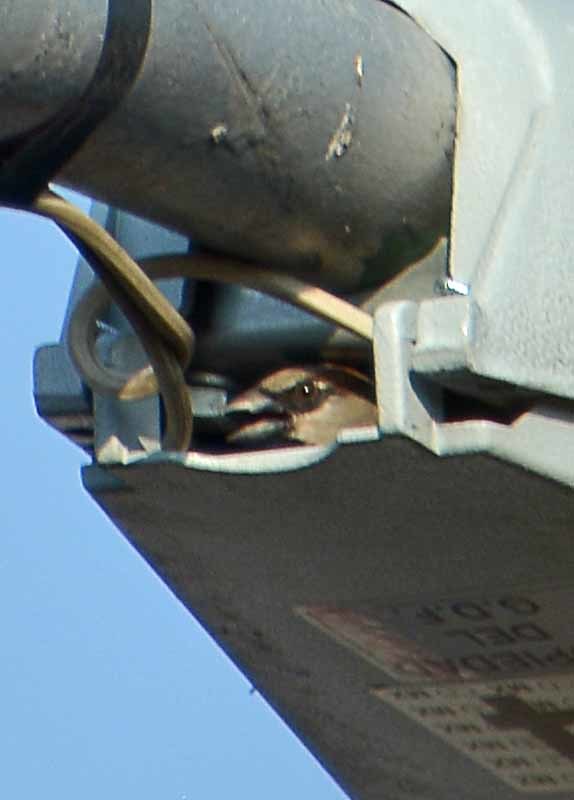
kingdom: Animalia
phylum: Chordata
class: Aves
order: Passeriformes
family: Passeridae
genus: Passer
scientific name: Passer domesticus
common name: House sparrow
